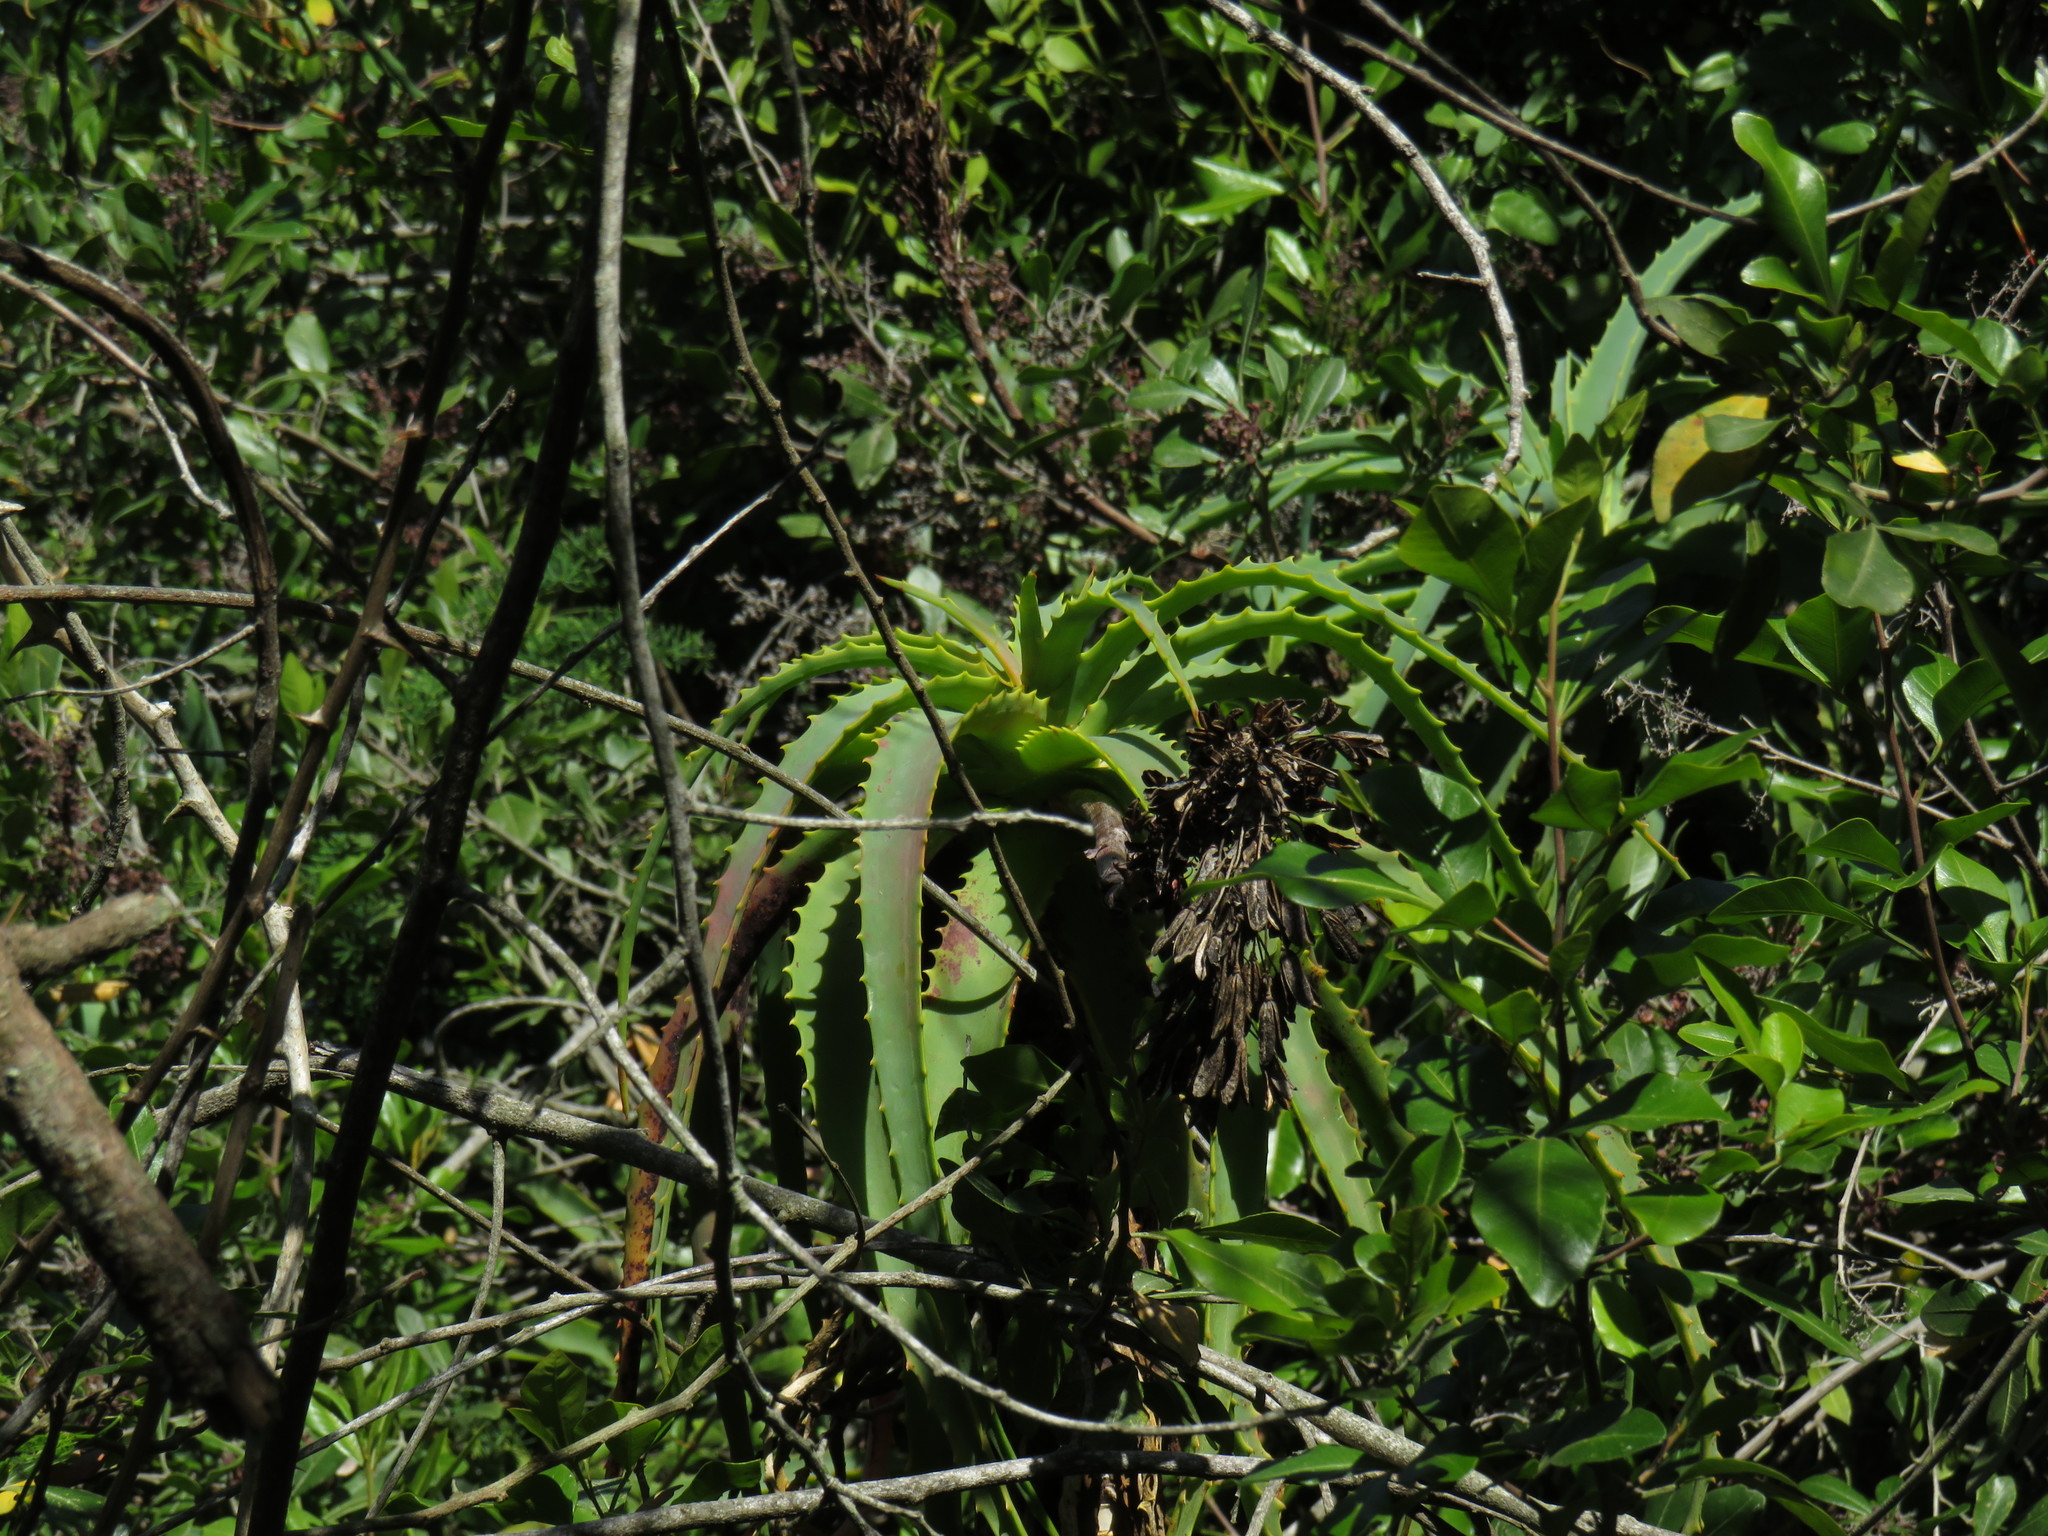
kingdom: Plantae
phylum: Tracheophyta
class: Liliopsida
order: Asparagales
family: Asphodelaceae
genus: Aloe
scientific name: Aloe arborescens
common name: Candelabra aloe
